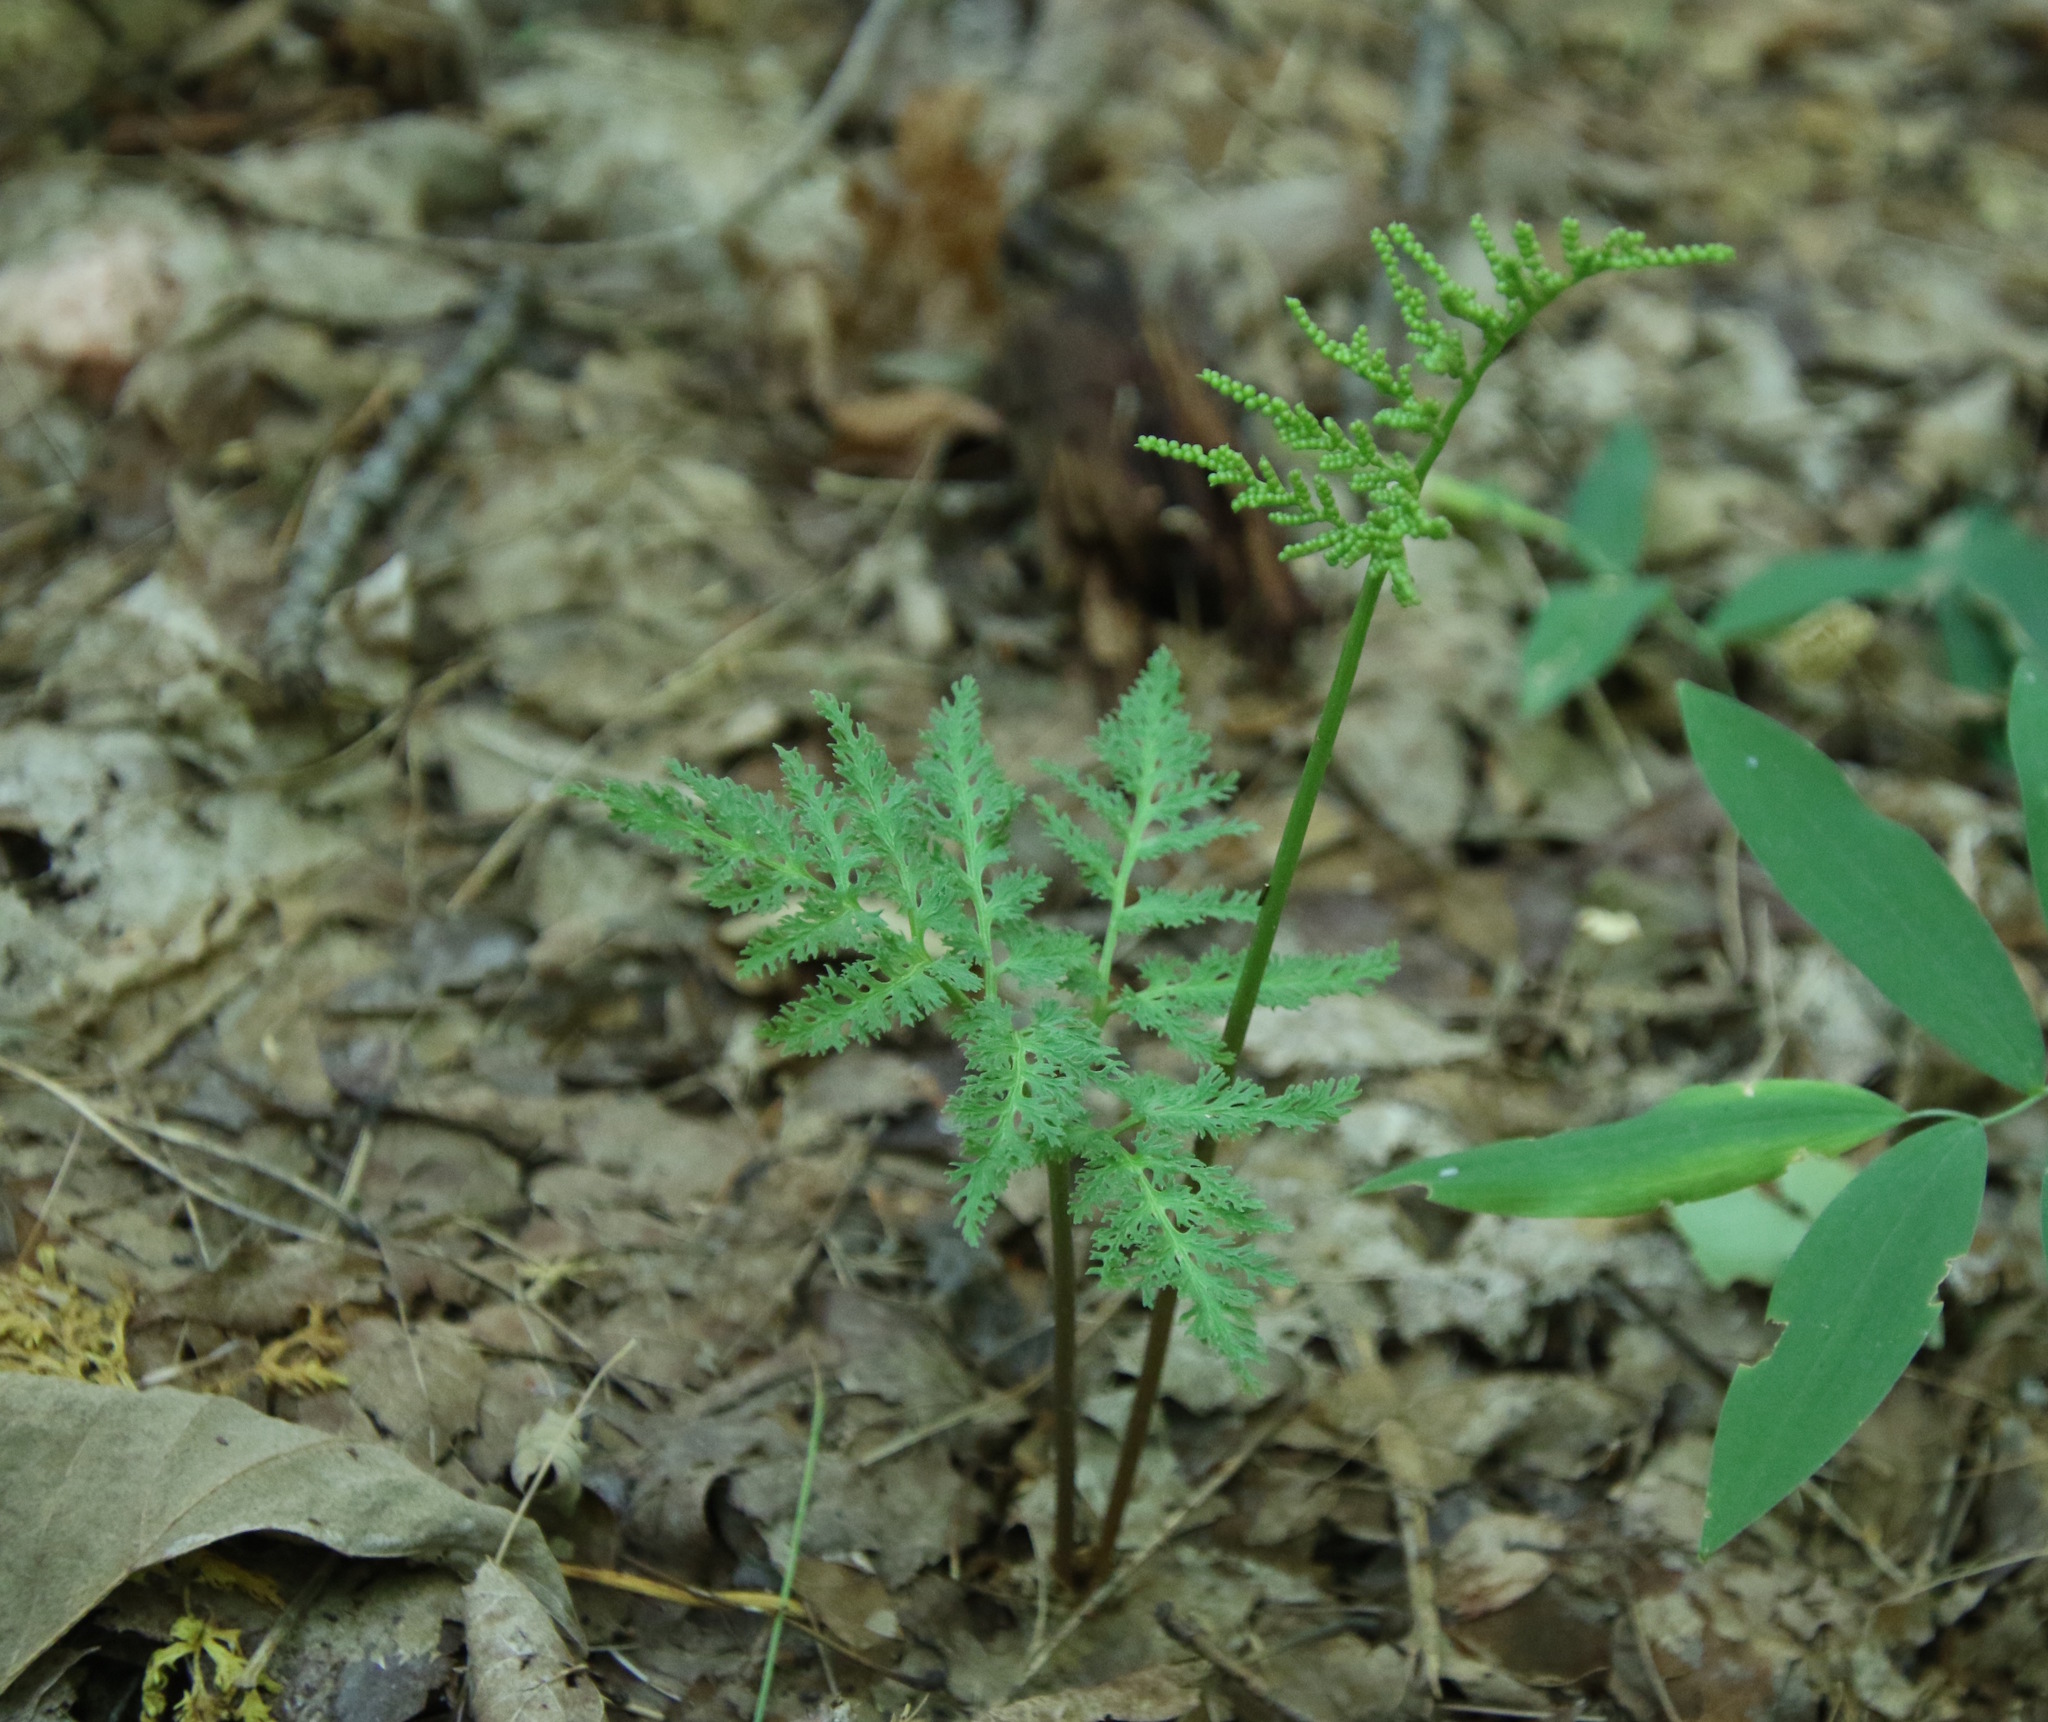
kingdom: Plantae
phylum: Tracheophyta
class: Polypodiopsida
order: Ophioglossales
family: Ophioglossaceae
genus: Sceptridium
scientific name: Sceptridium dissectum
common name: Cut-leaved grapefern
